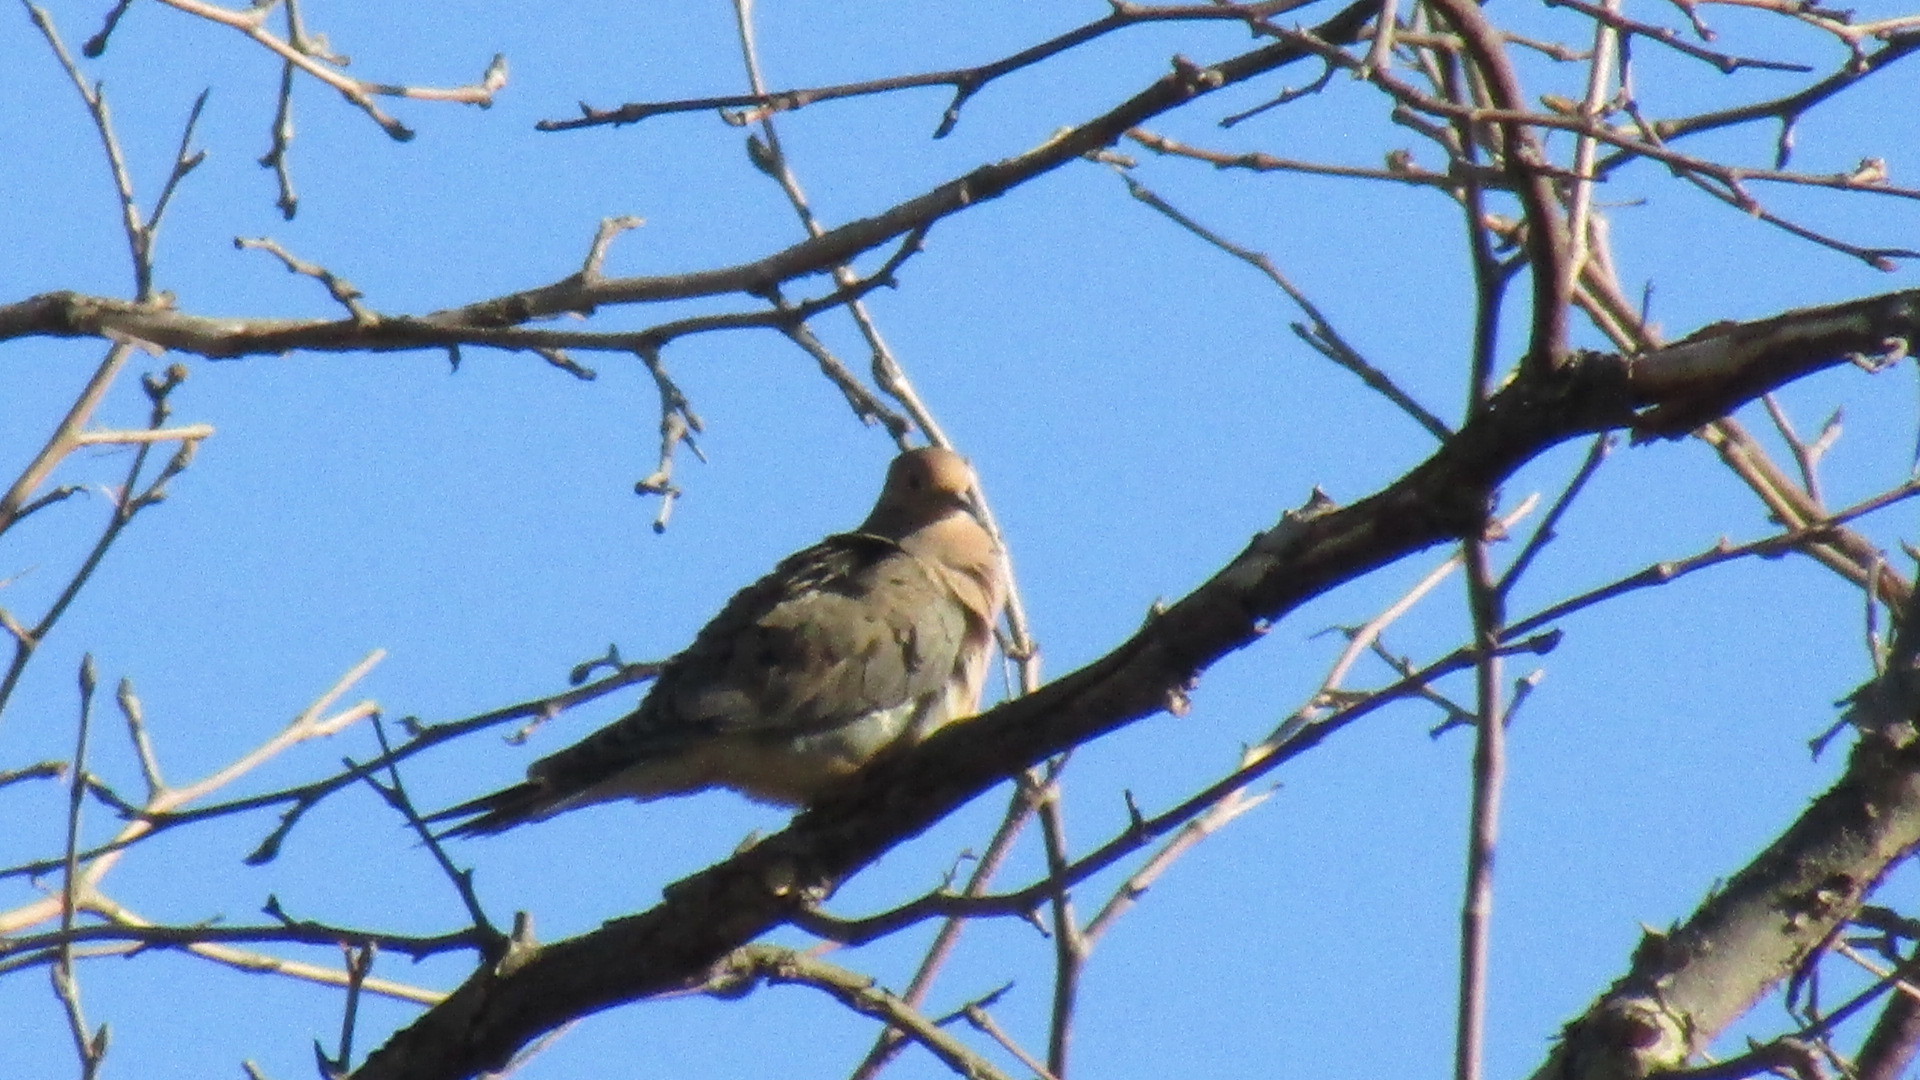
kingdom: Animalia
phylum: Chordata
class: Aves
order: Columbiformes
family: Columbidae
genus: Zenaida
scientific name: Zenaida macroura
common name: Mourning dove
